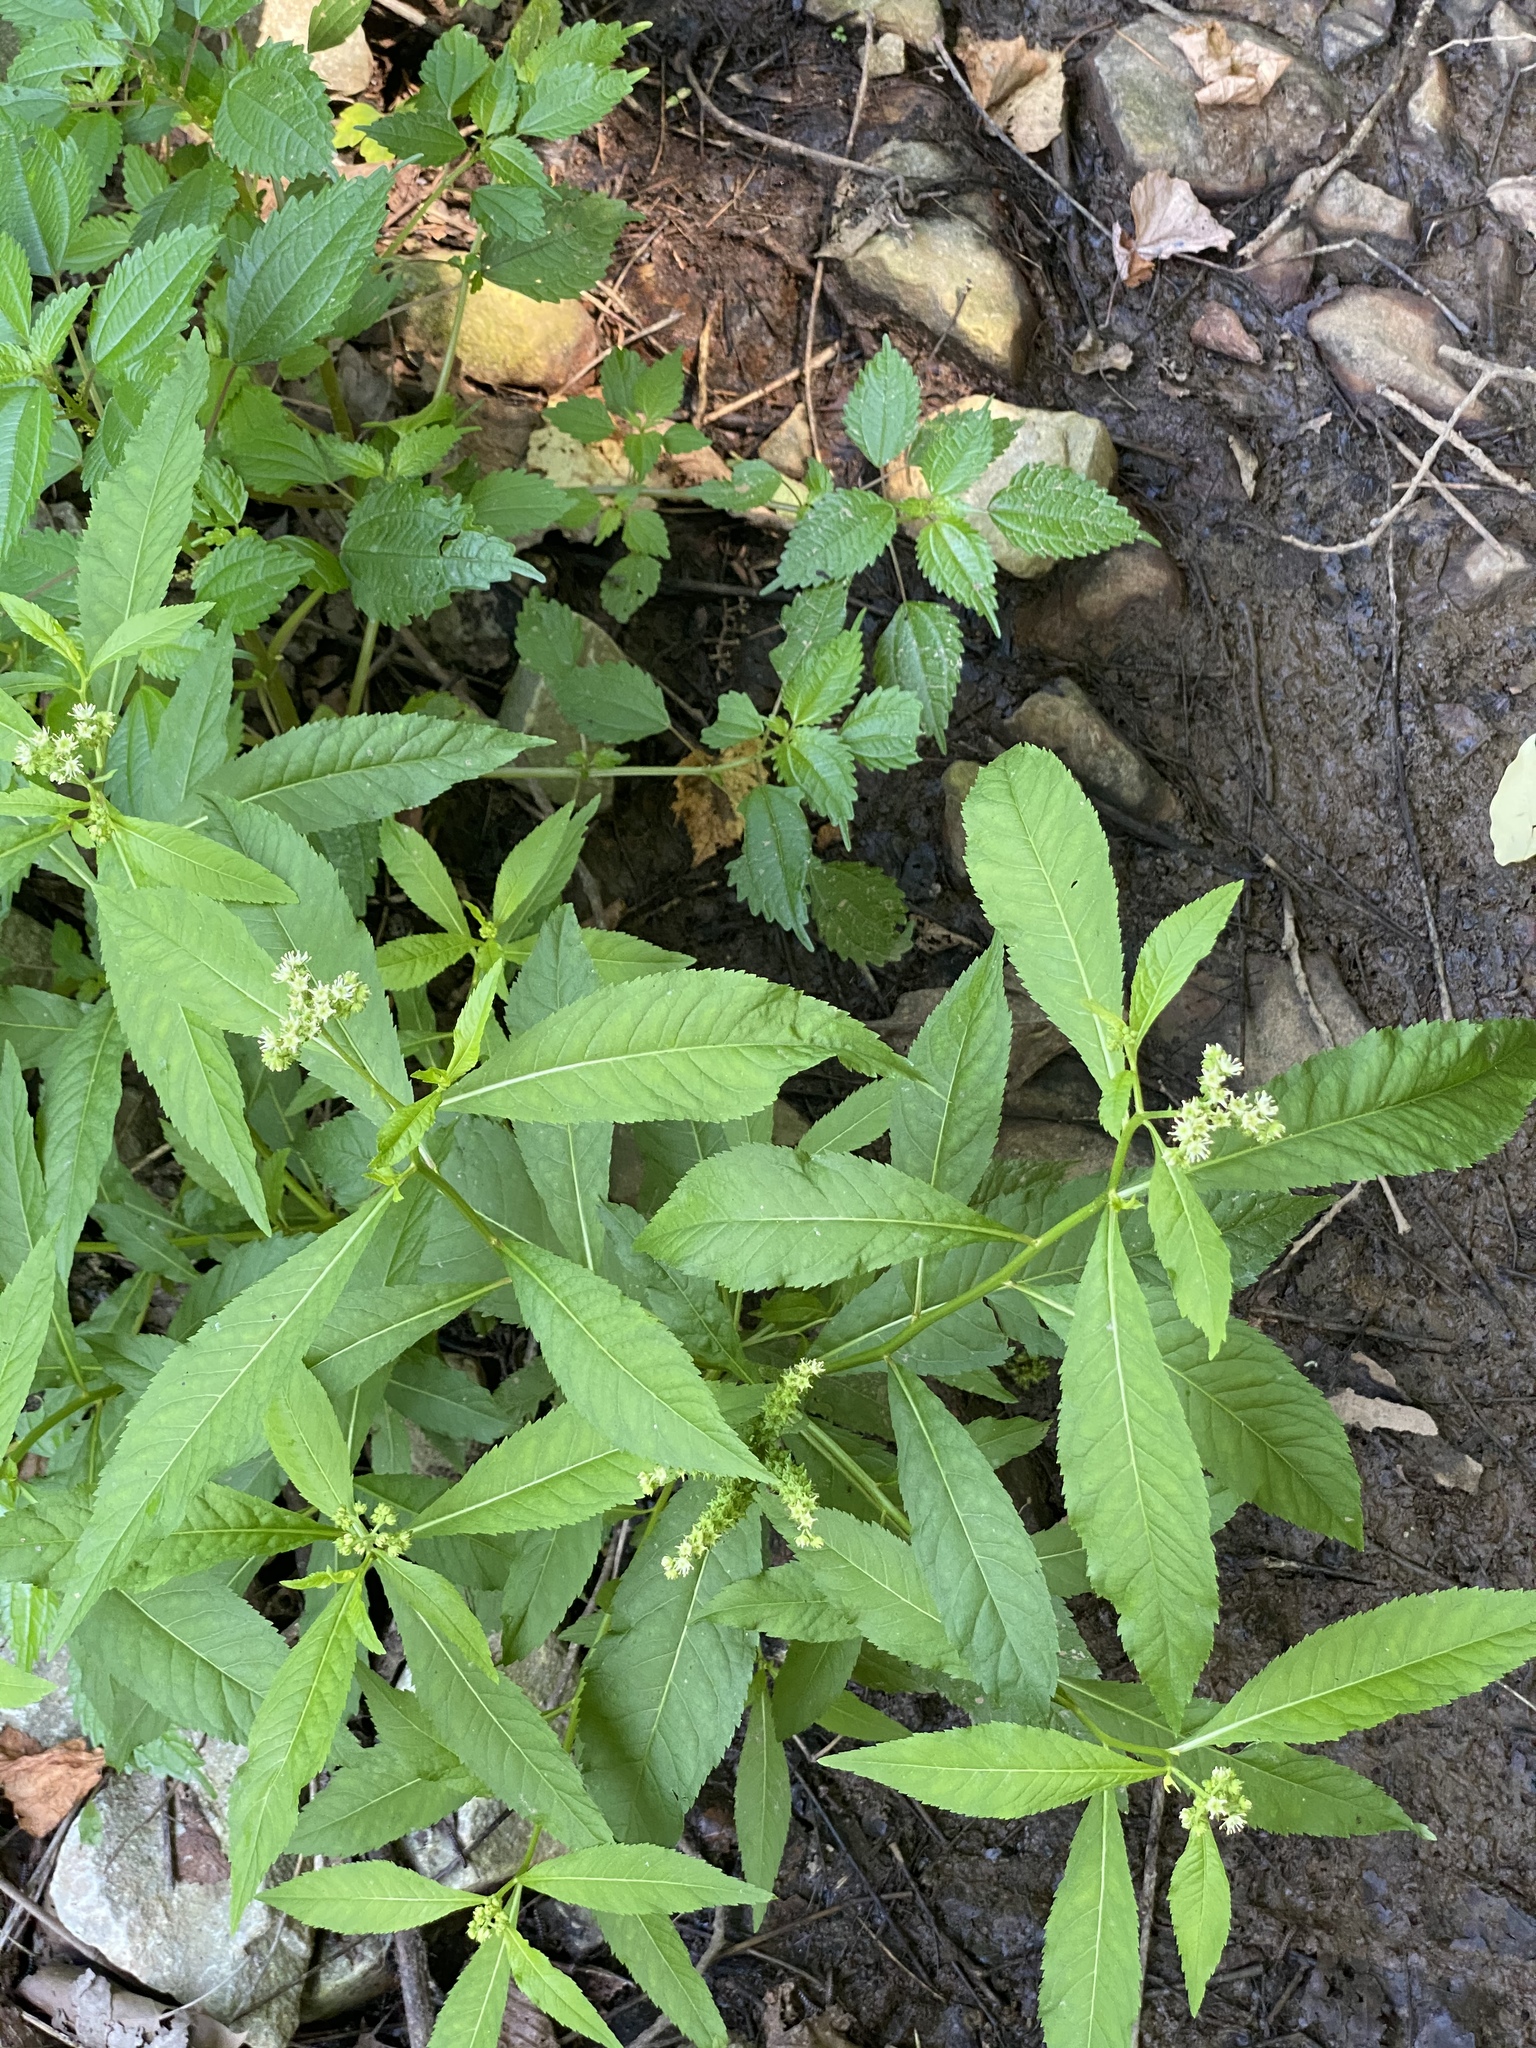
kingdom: Plantae
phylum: Tracheophyta
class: Magnoliopsida
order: Saxifragales
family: Penthoraceae
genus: Penthorum
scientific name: Penthorum sedoides
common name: Ditch stonecrop
